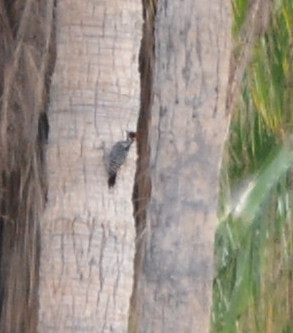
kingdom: Animalia
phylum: Chordata
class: Aves
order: Piciformes
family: Picidae
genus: Dryobates
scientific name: Dryobates scalaris
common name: Ladder-backed woodpecker
